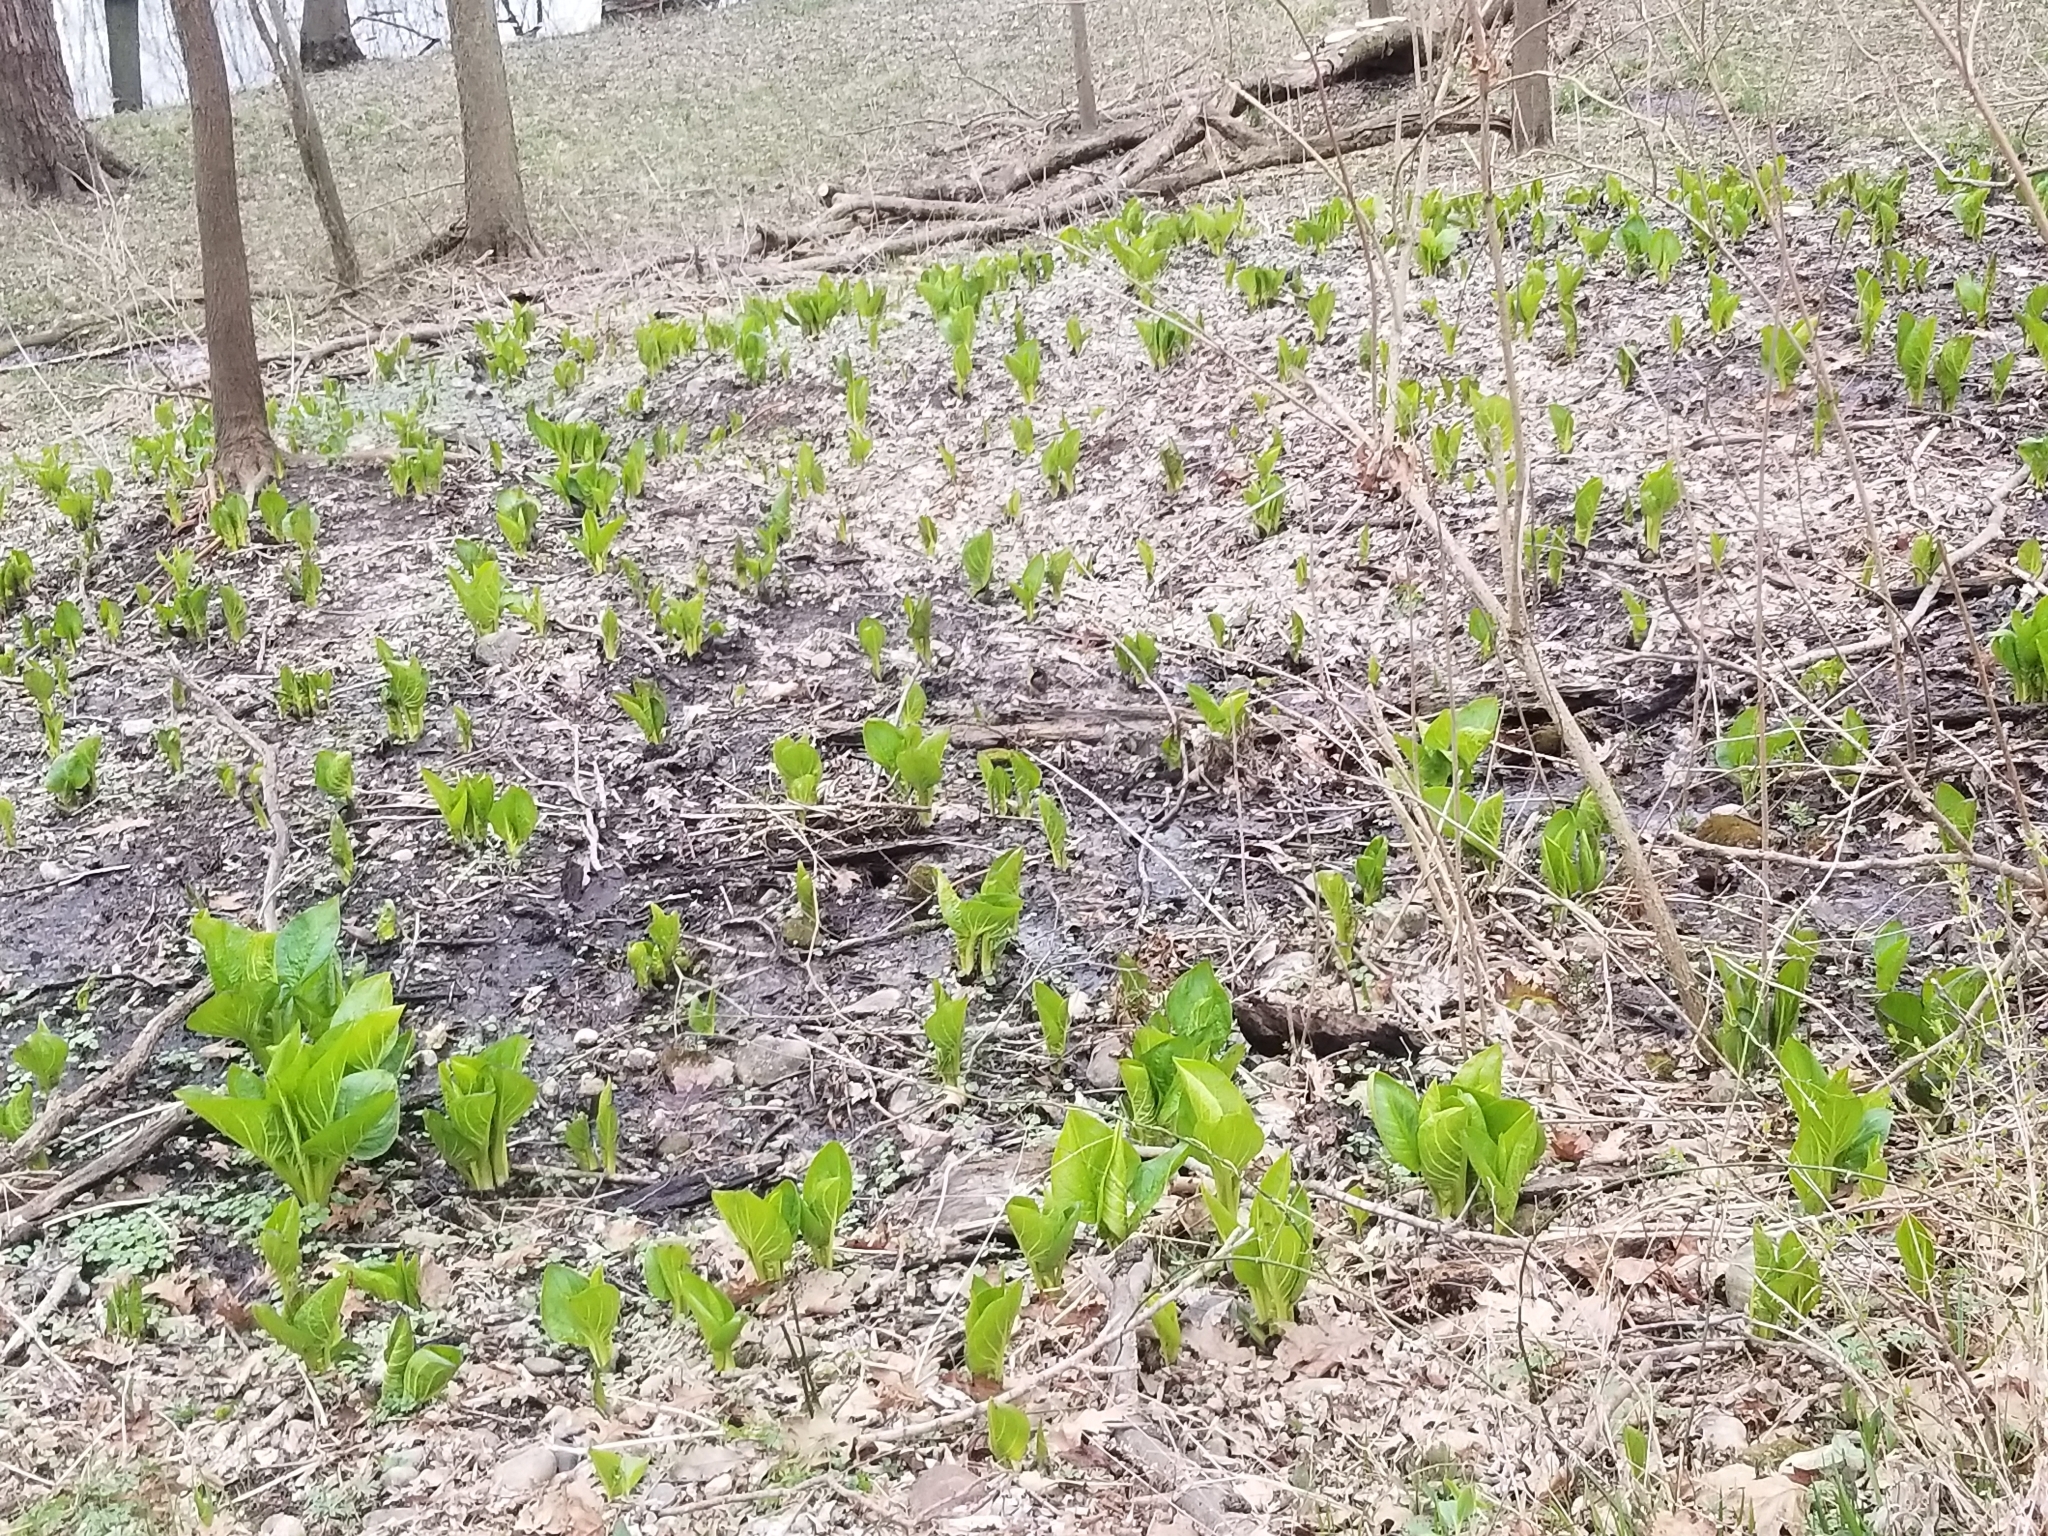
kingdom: Plantae
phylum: Tracheophyta
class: Liliopsida
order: Alismatales
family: Araceae
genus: Symplocarpus
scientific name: Symplocarpus foetidus
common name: Eastern skunk cabbage
